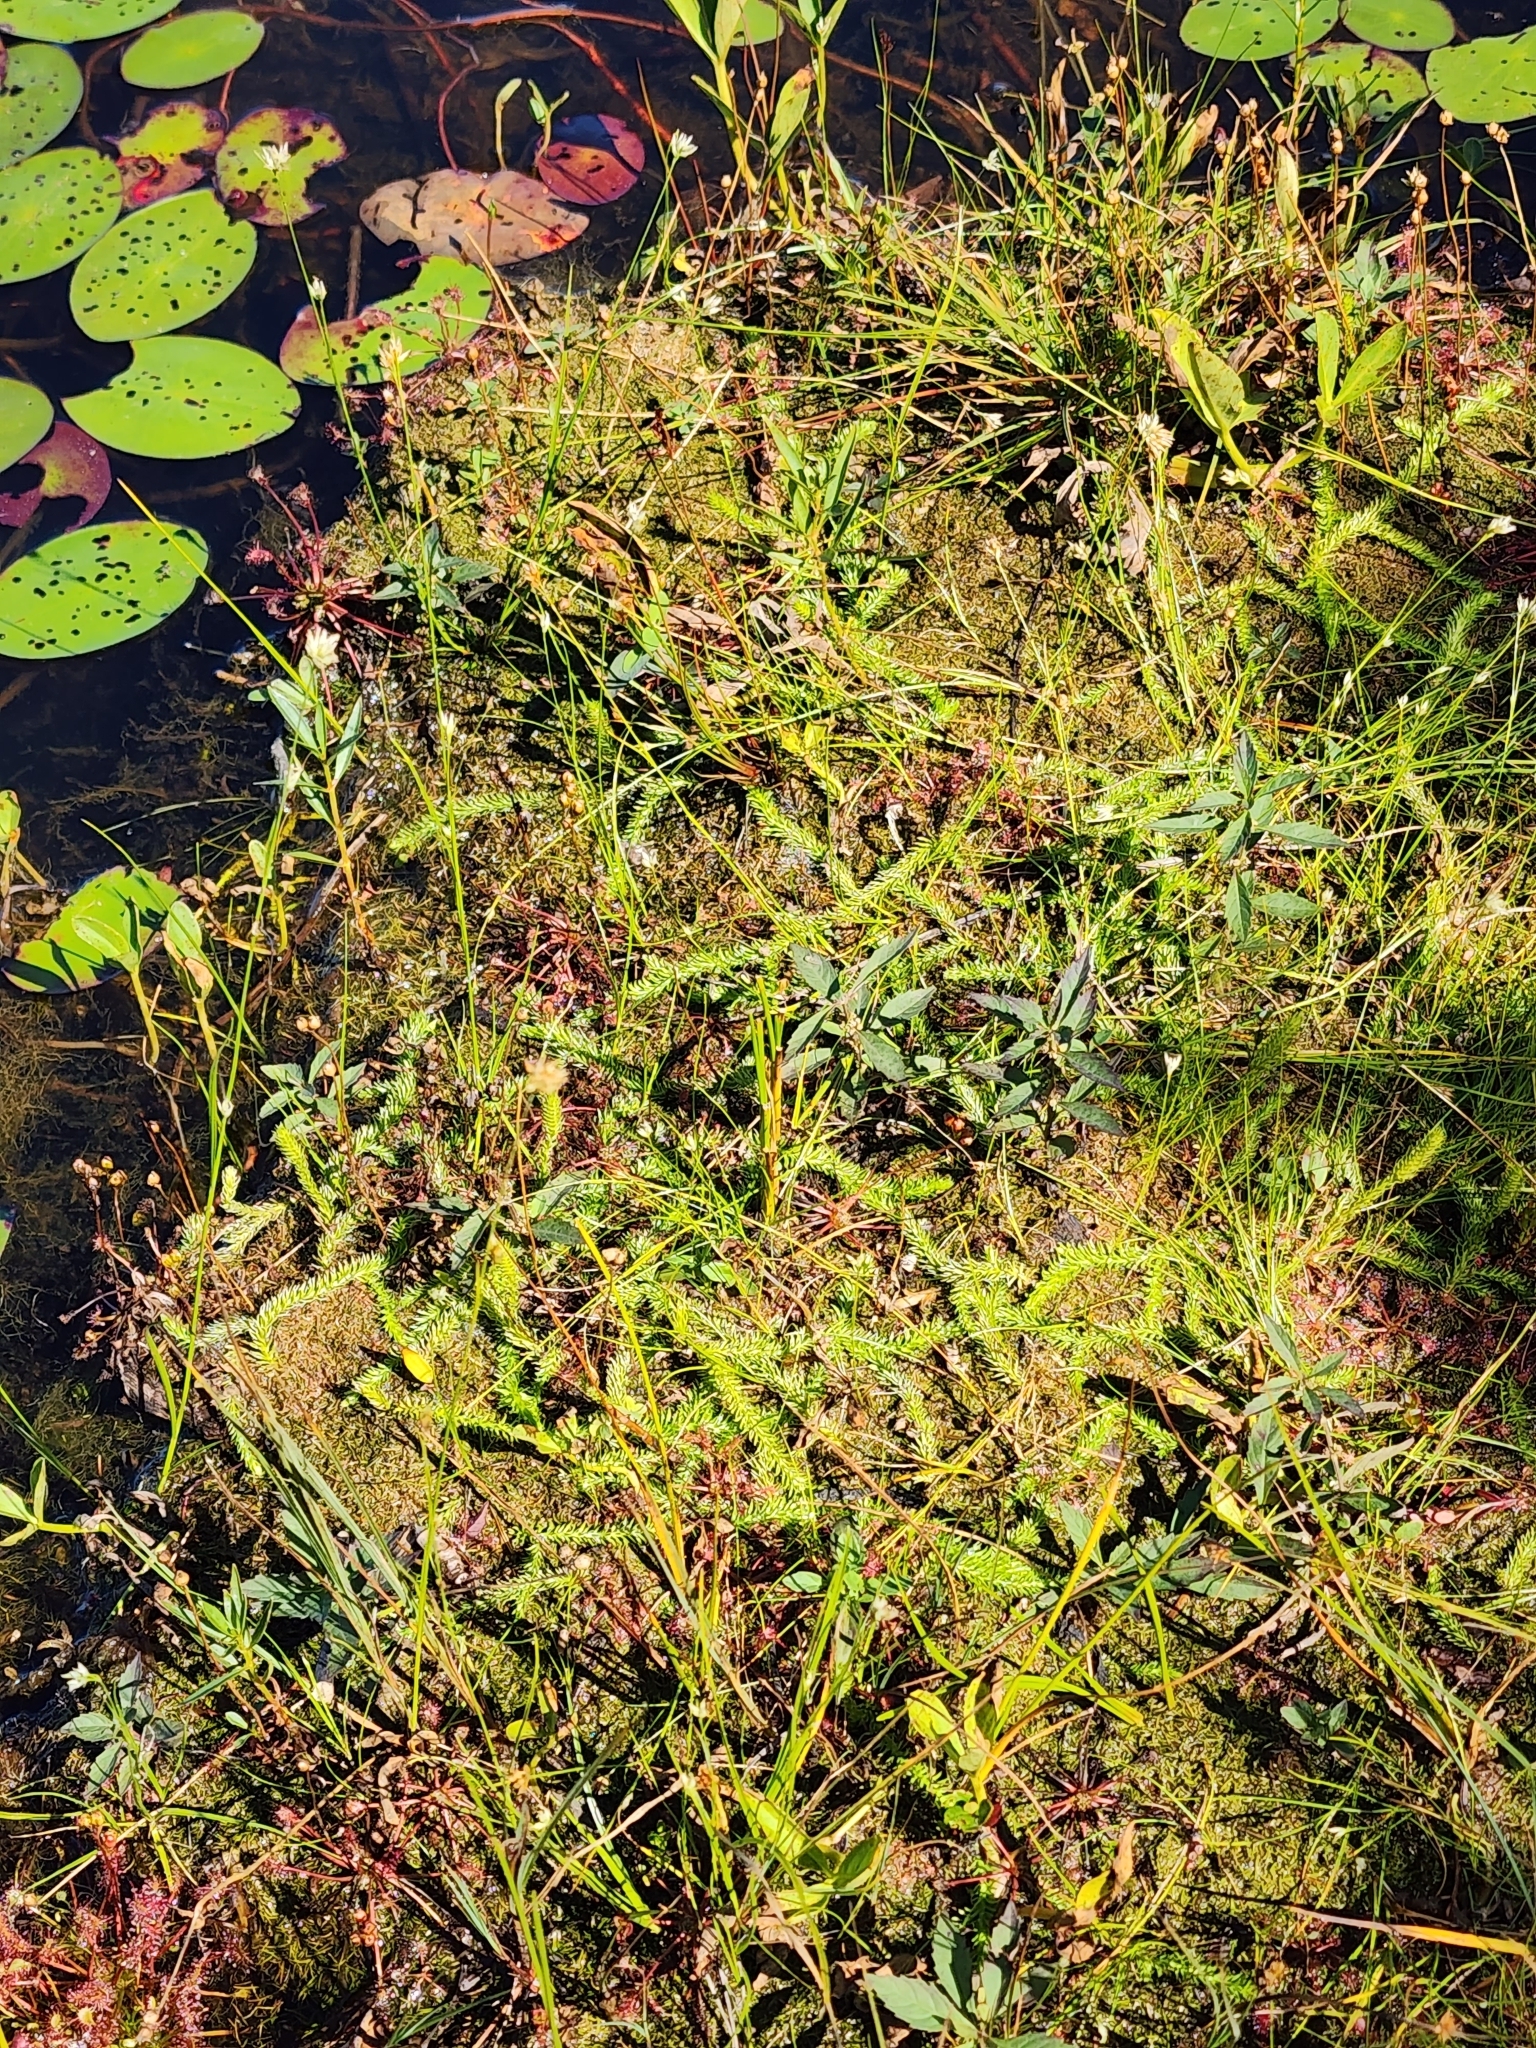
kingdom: Plantae
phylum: Tracheophyta
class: Lycopodiopsida
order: Lycopodiales
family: Lycopodiaceae
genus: Lycopodiella
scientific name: Lycopodiella inundata
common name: Marsh clubmoss
